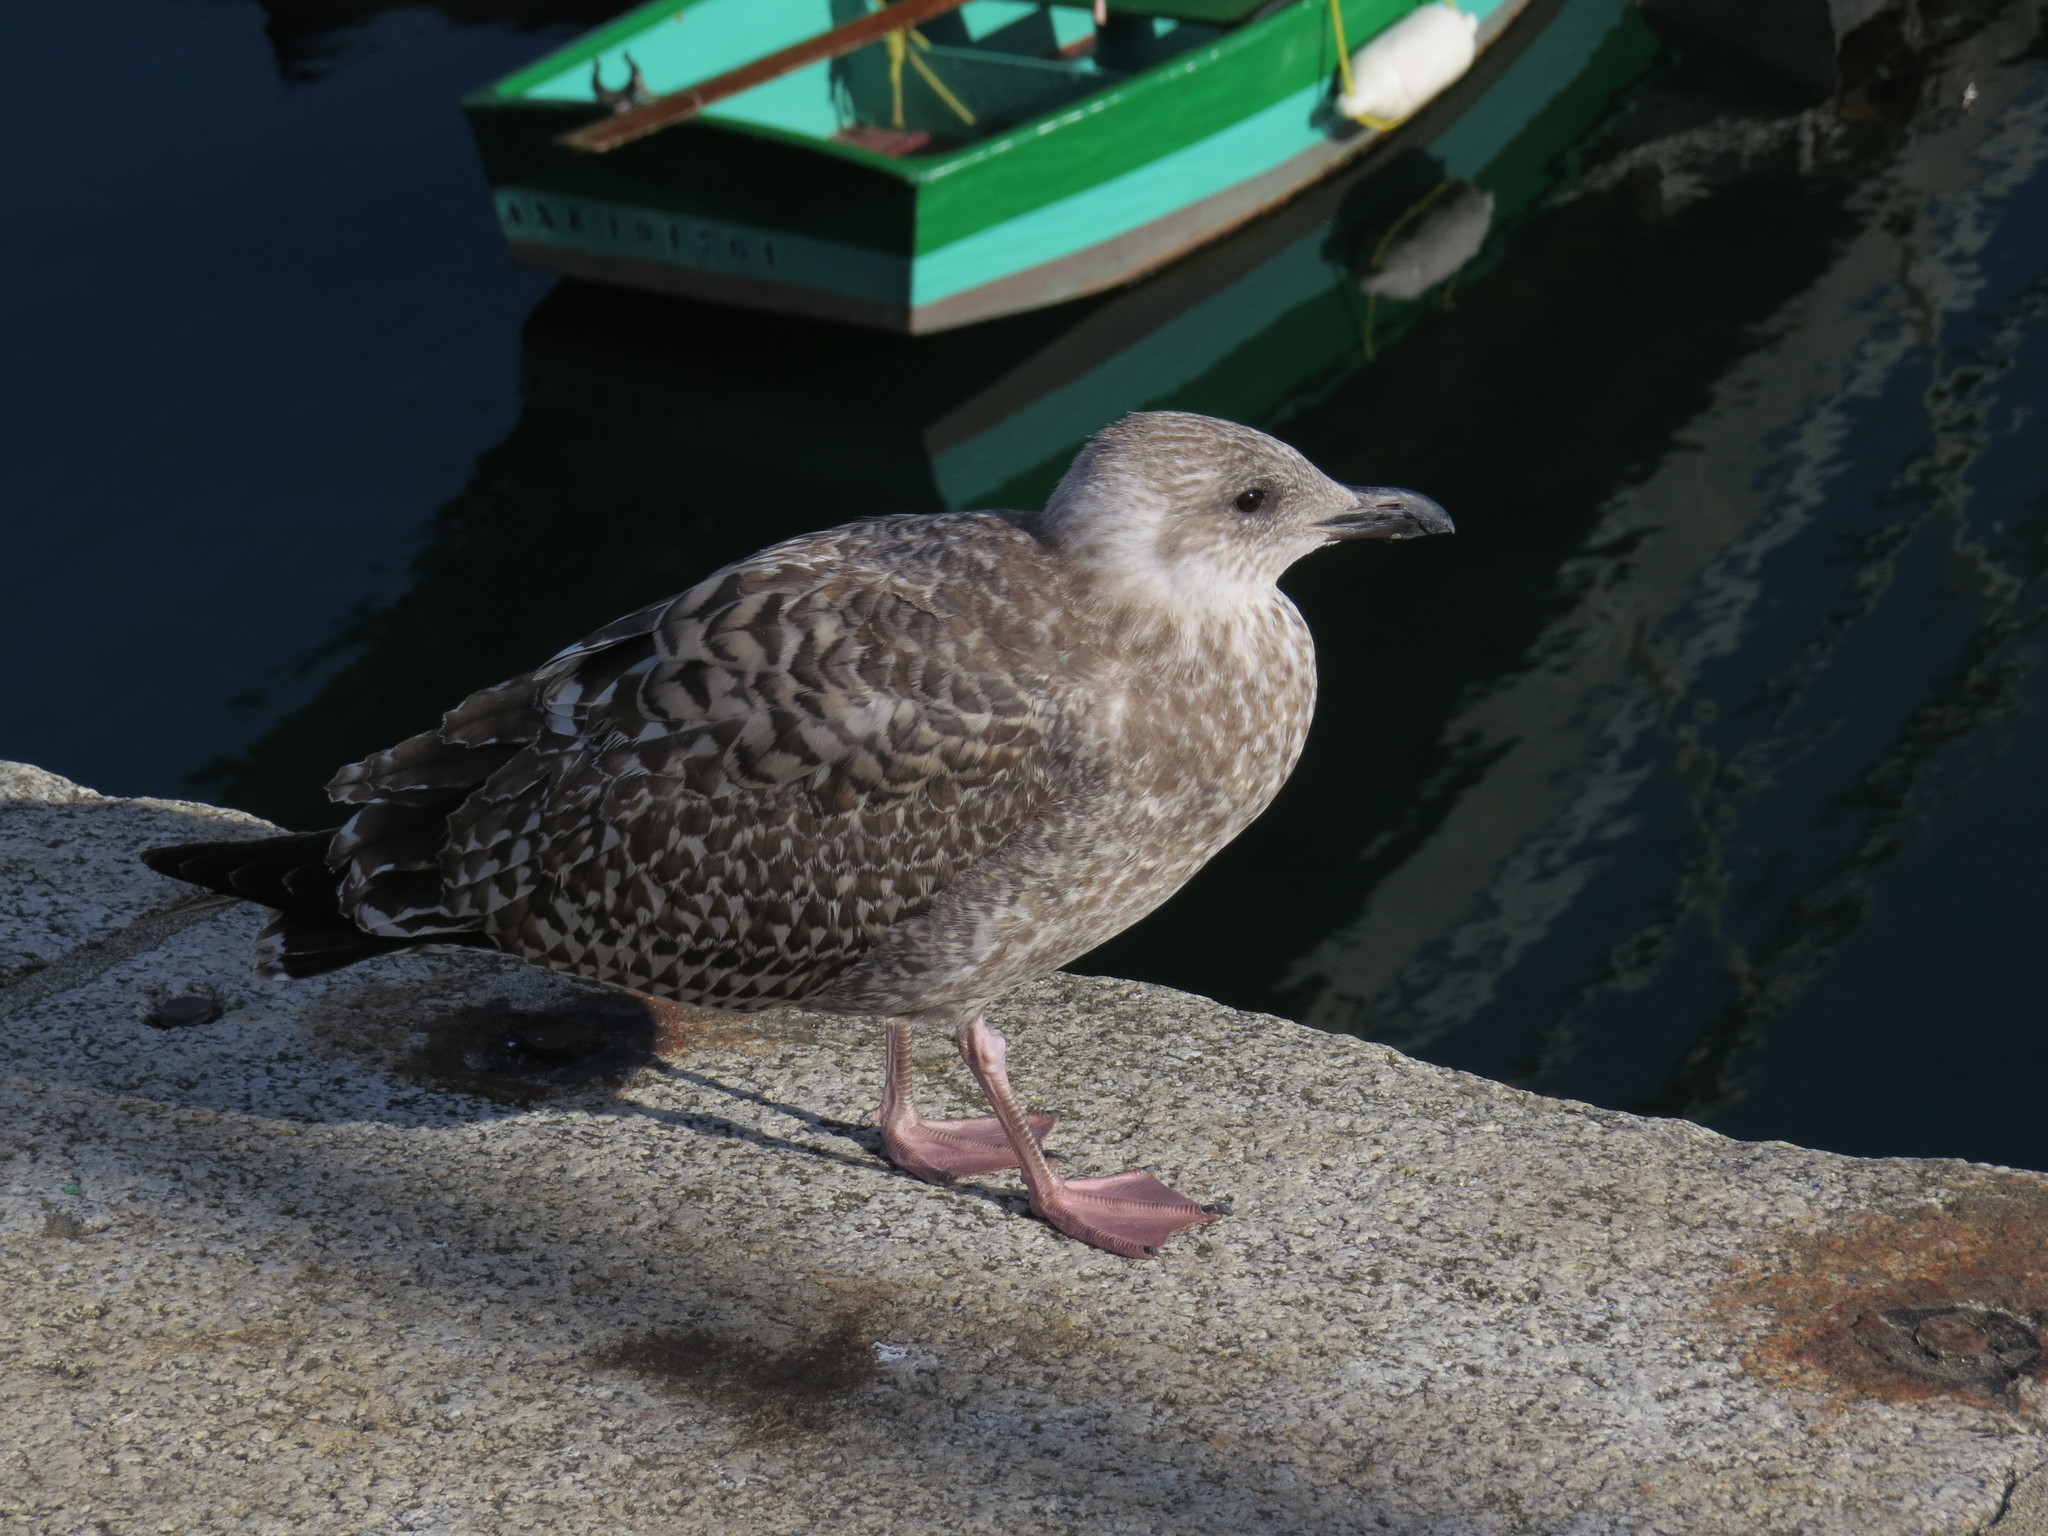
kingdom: Animalia
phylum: Chordata
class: Aves
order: Charadriiformes
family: Laridae
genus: Larus
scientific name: Larus argentatus
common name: Herring gull
